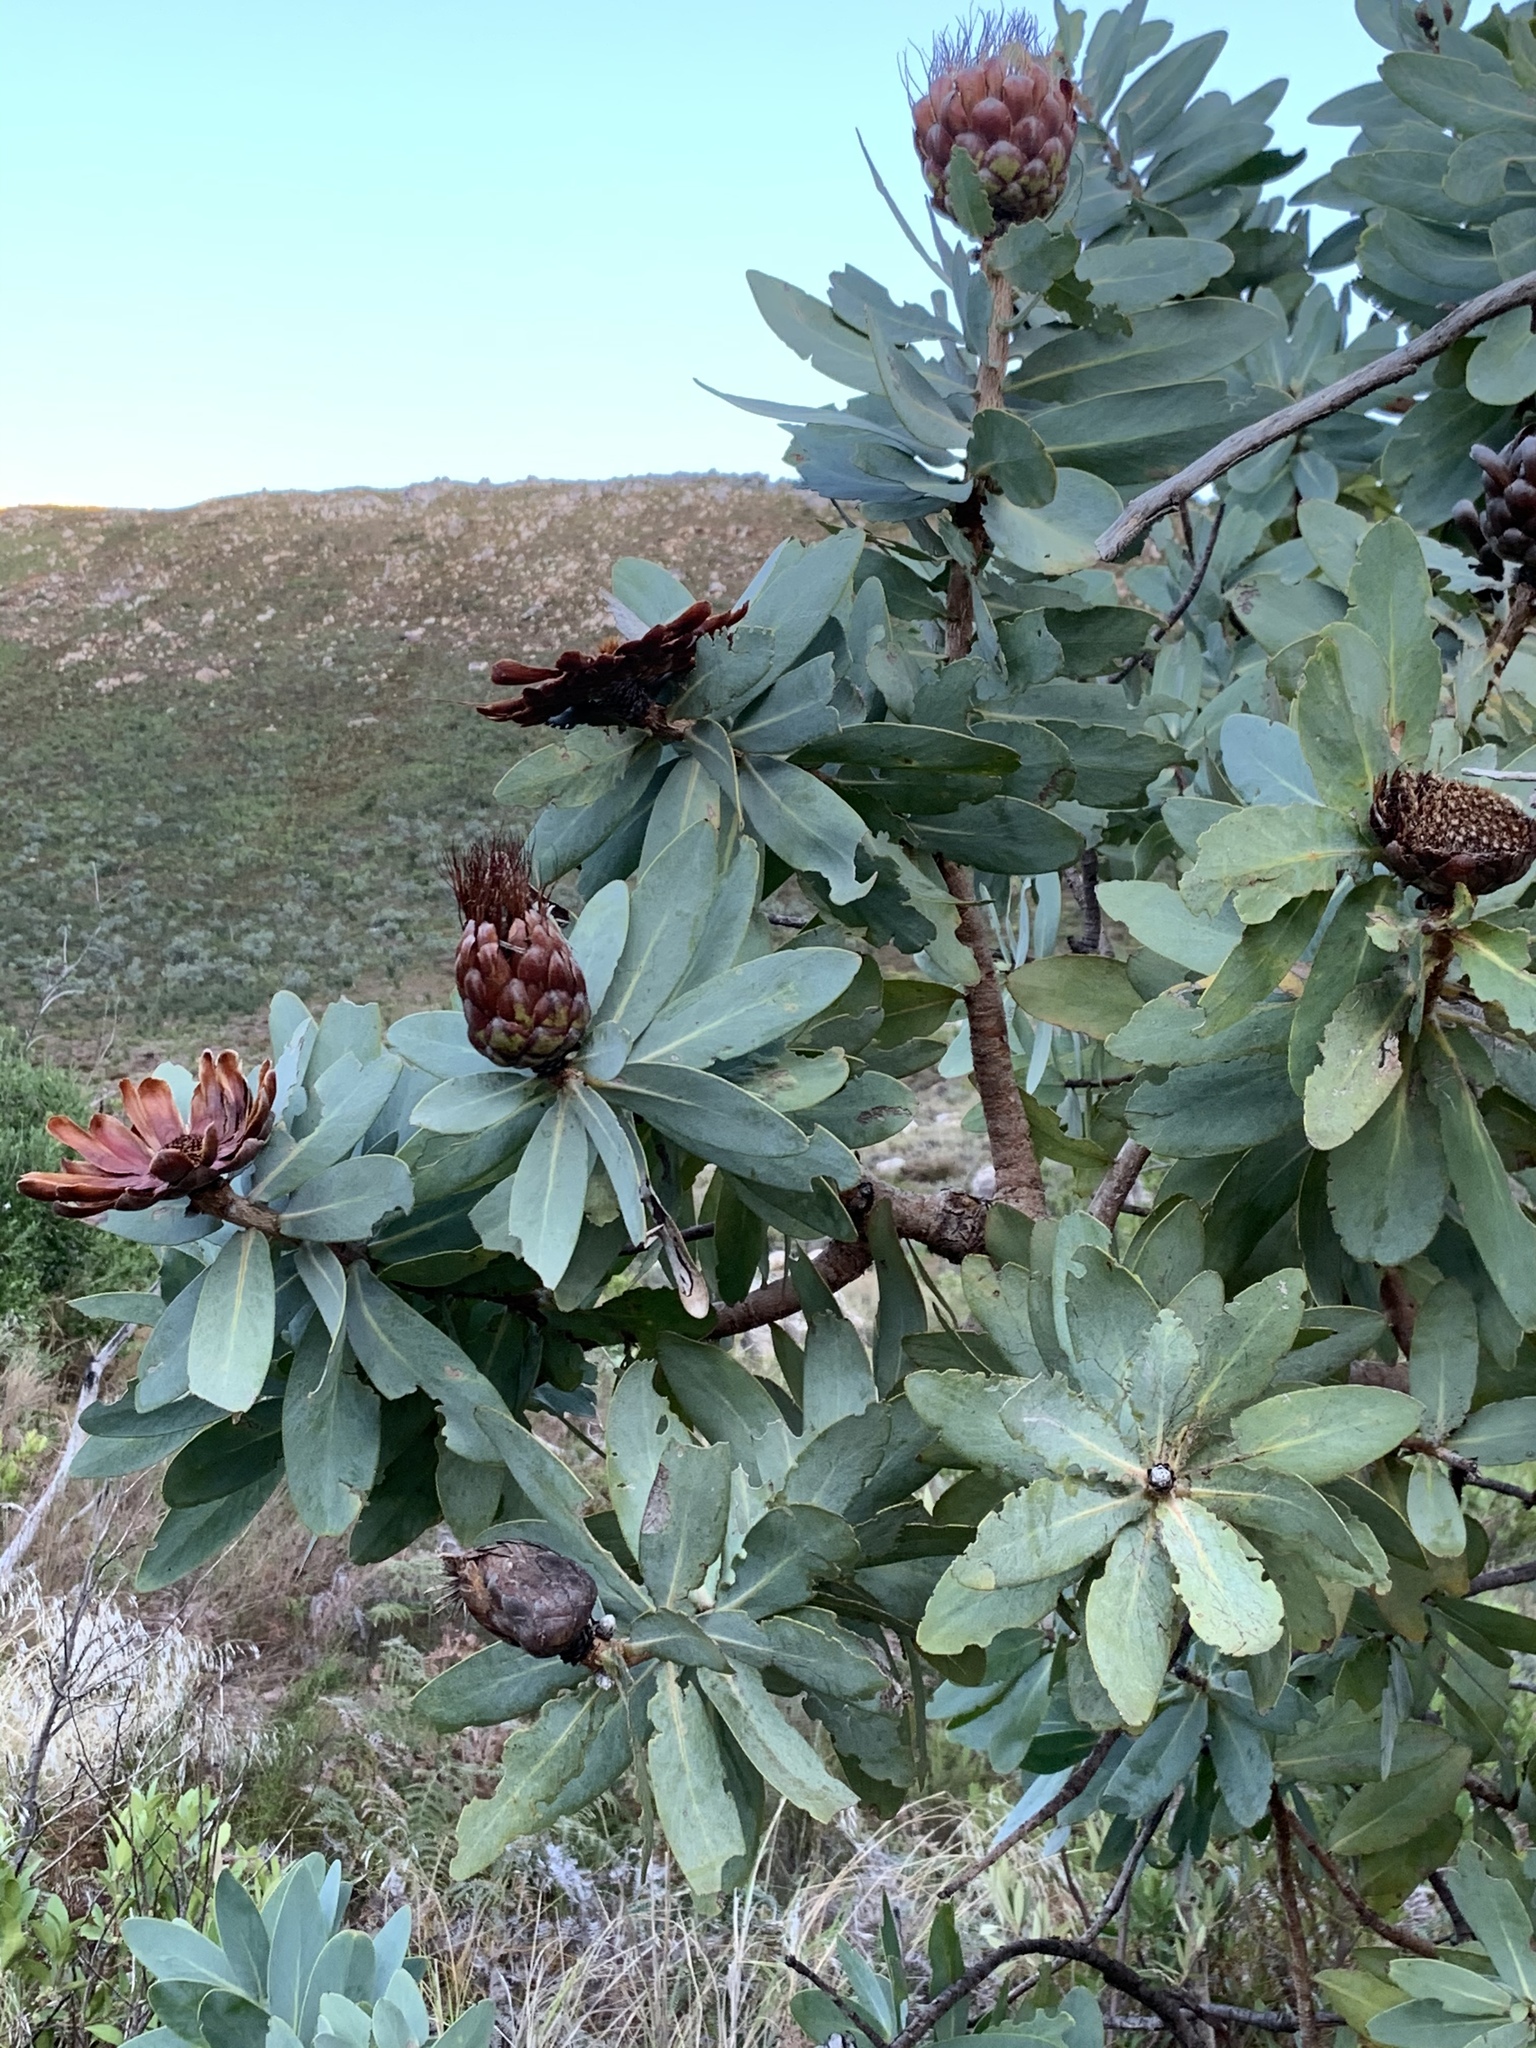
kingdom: Plantae
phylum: Tracheophyta
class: Magnoliopsida
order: Proteales
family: Proteaceae
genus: Protea
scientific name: Protea nitida
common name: Tree protea
